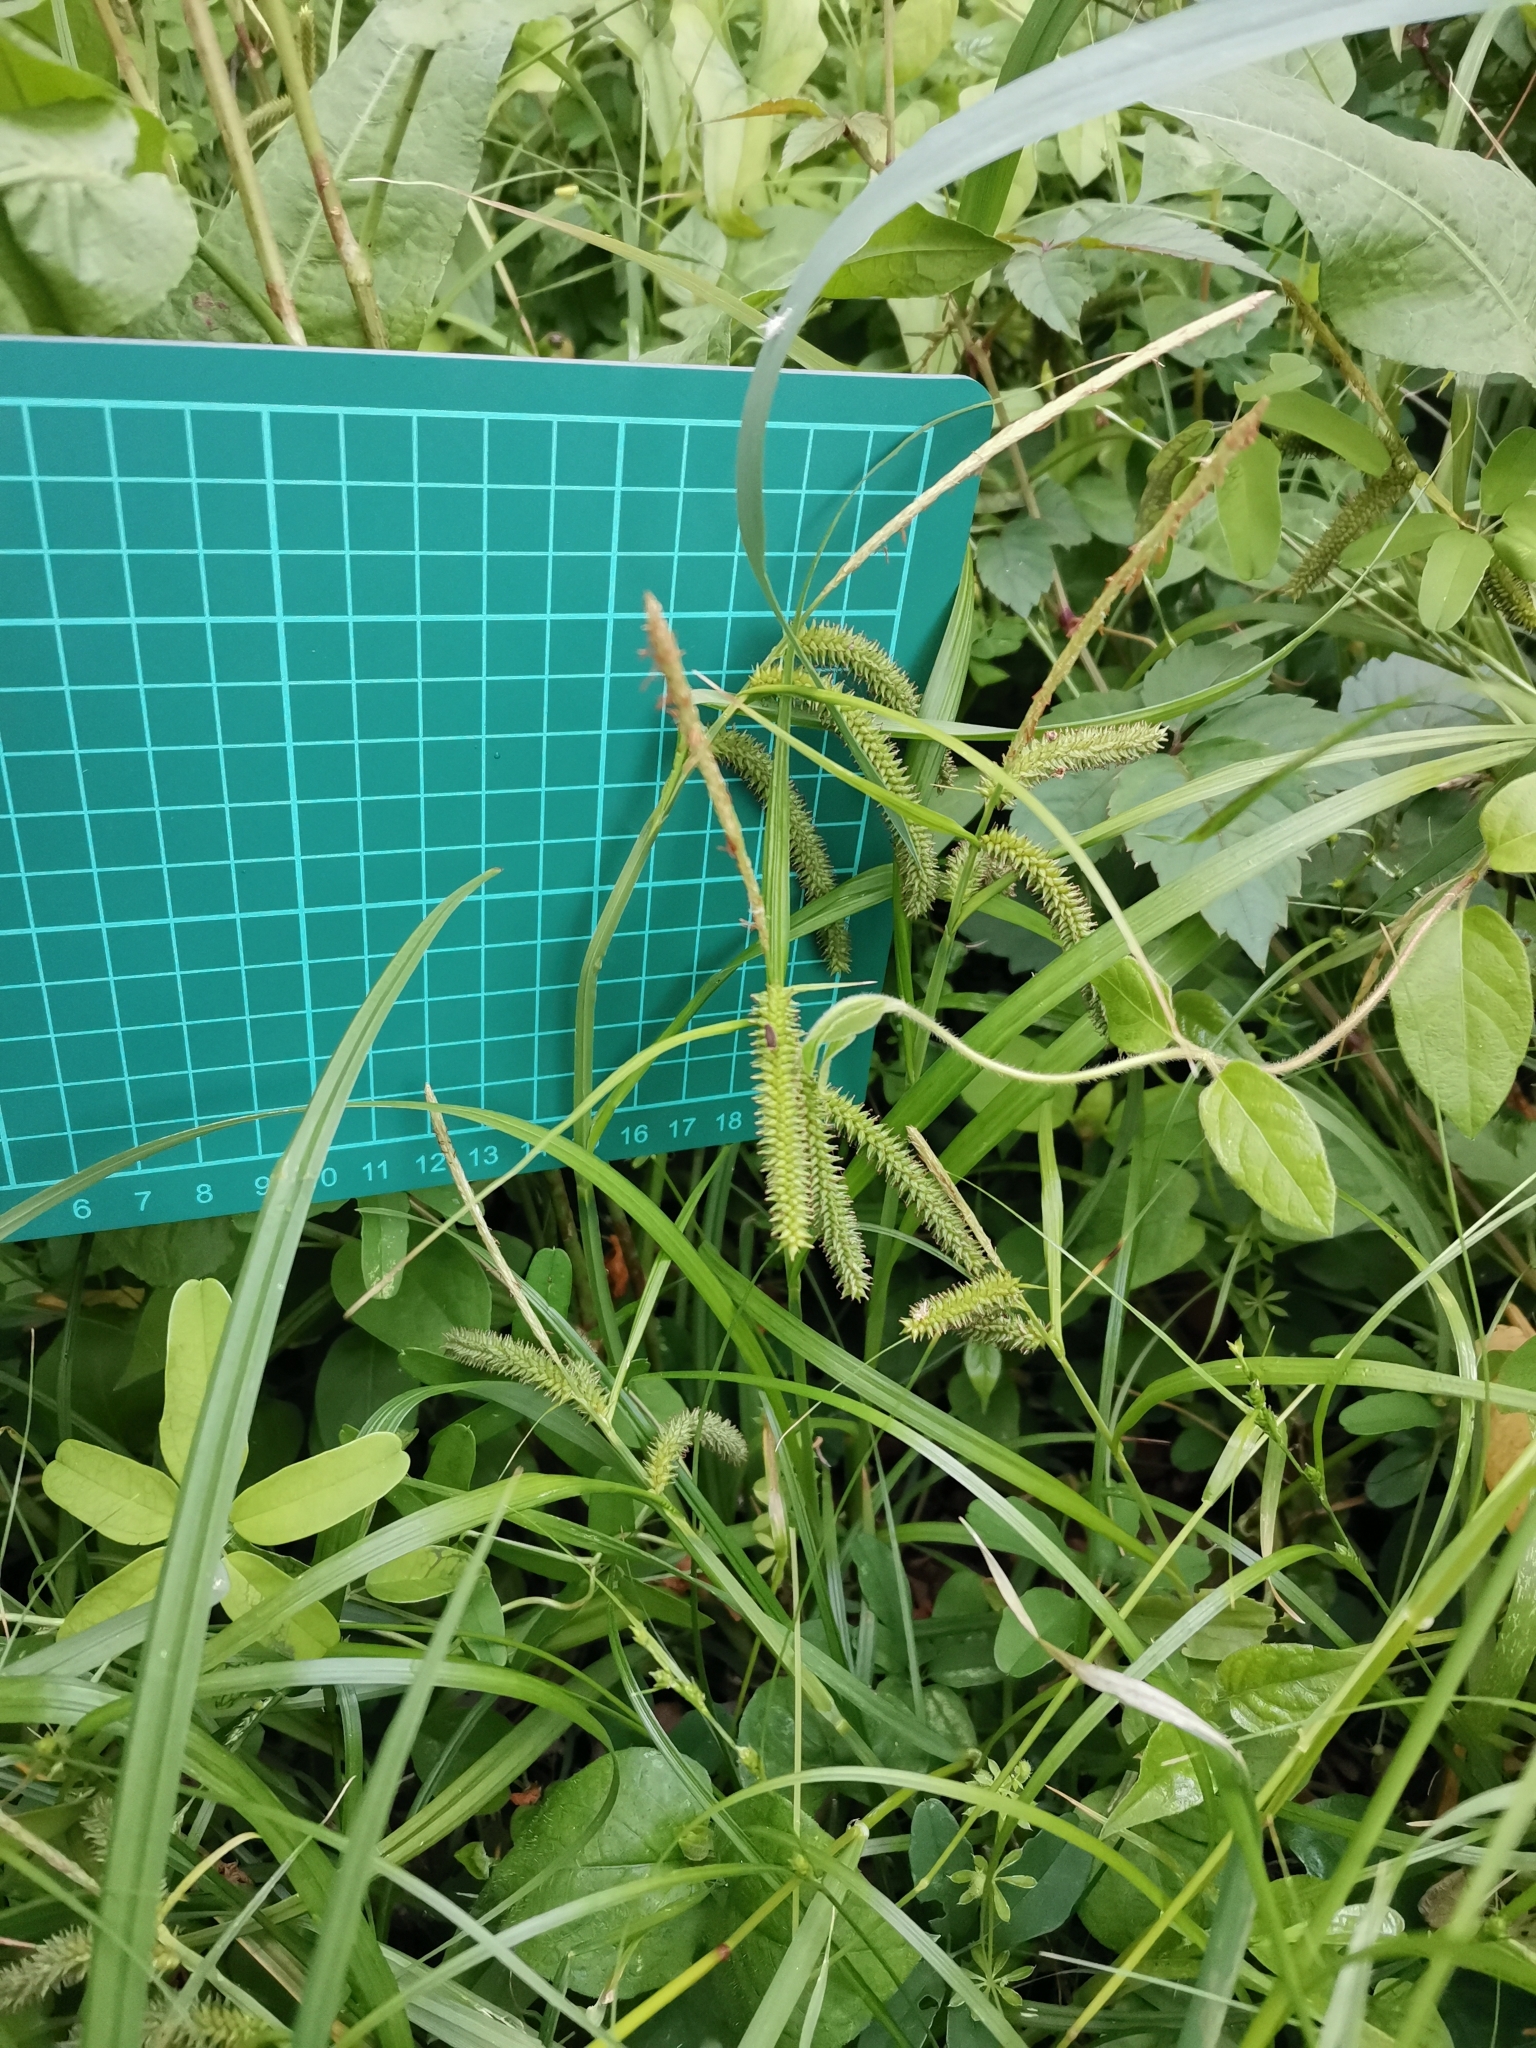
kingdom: Plantae
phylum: Tracheophyta
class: Liliopsida
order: Poales
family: Cyperaceae
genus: Carex
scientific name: Carex doniana
